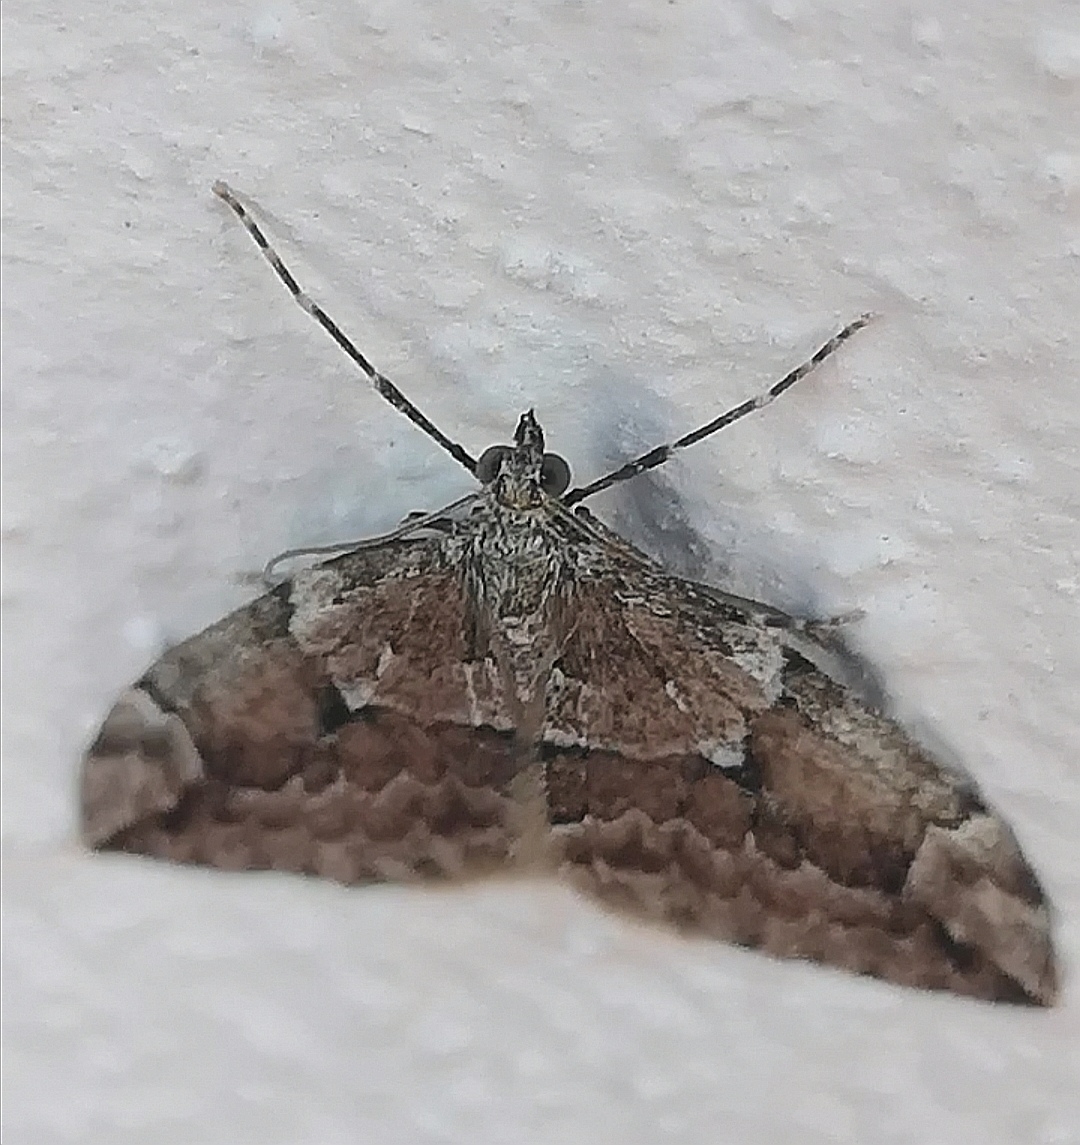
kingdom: Animalia
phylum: Arthropoda
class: Insecta
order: Lepidoptera
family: Geometridae
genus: Thera
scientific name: Thera juniperata
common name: Juniper carpet
